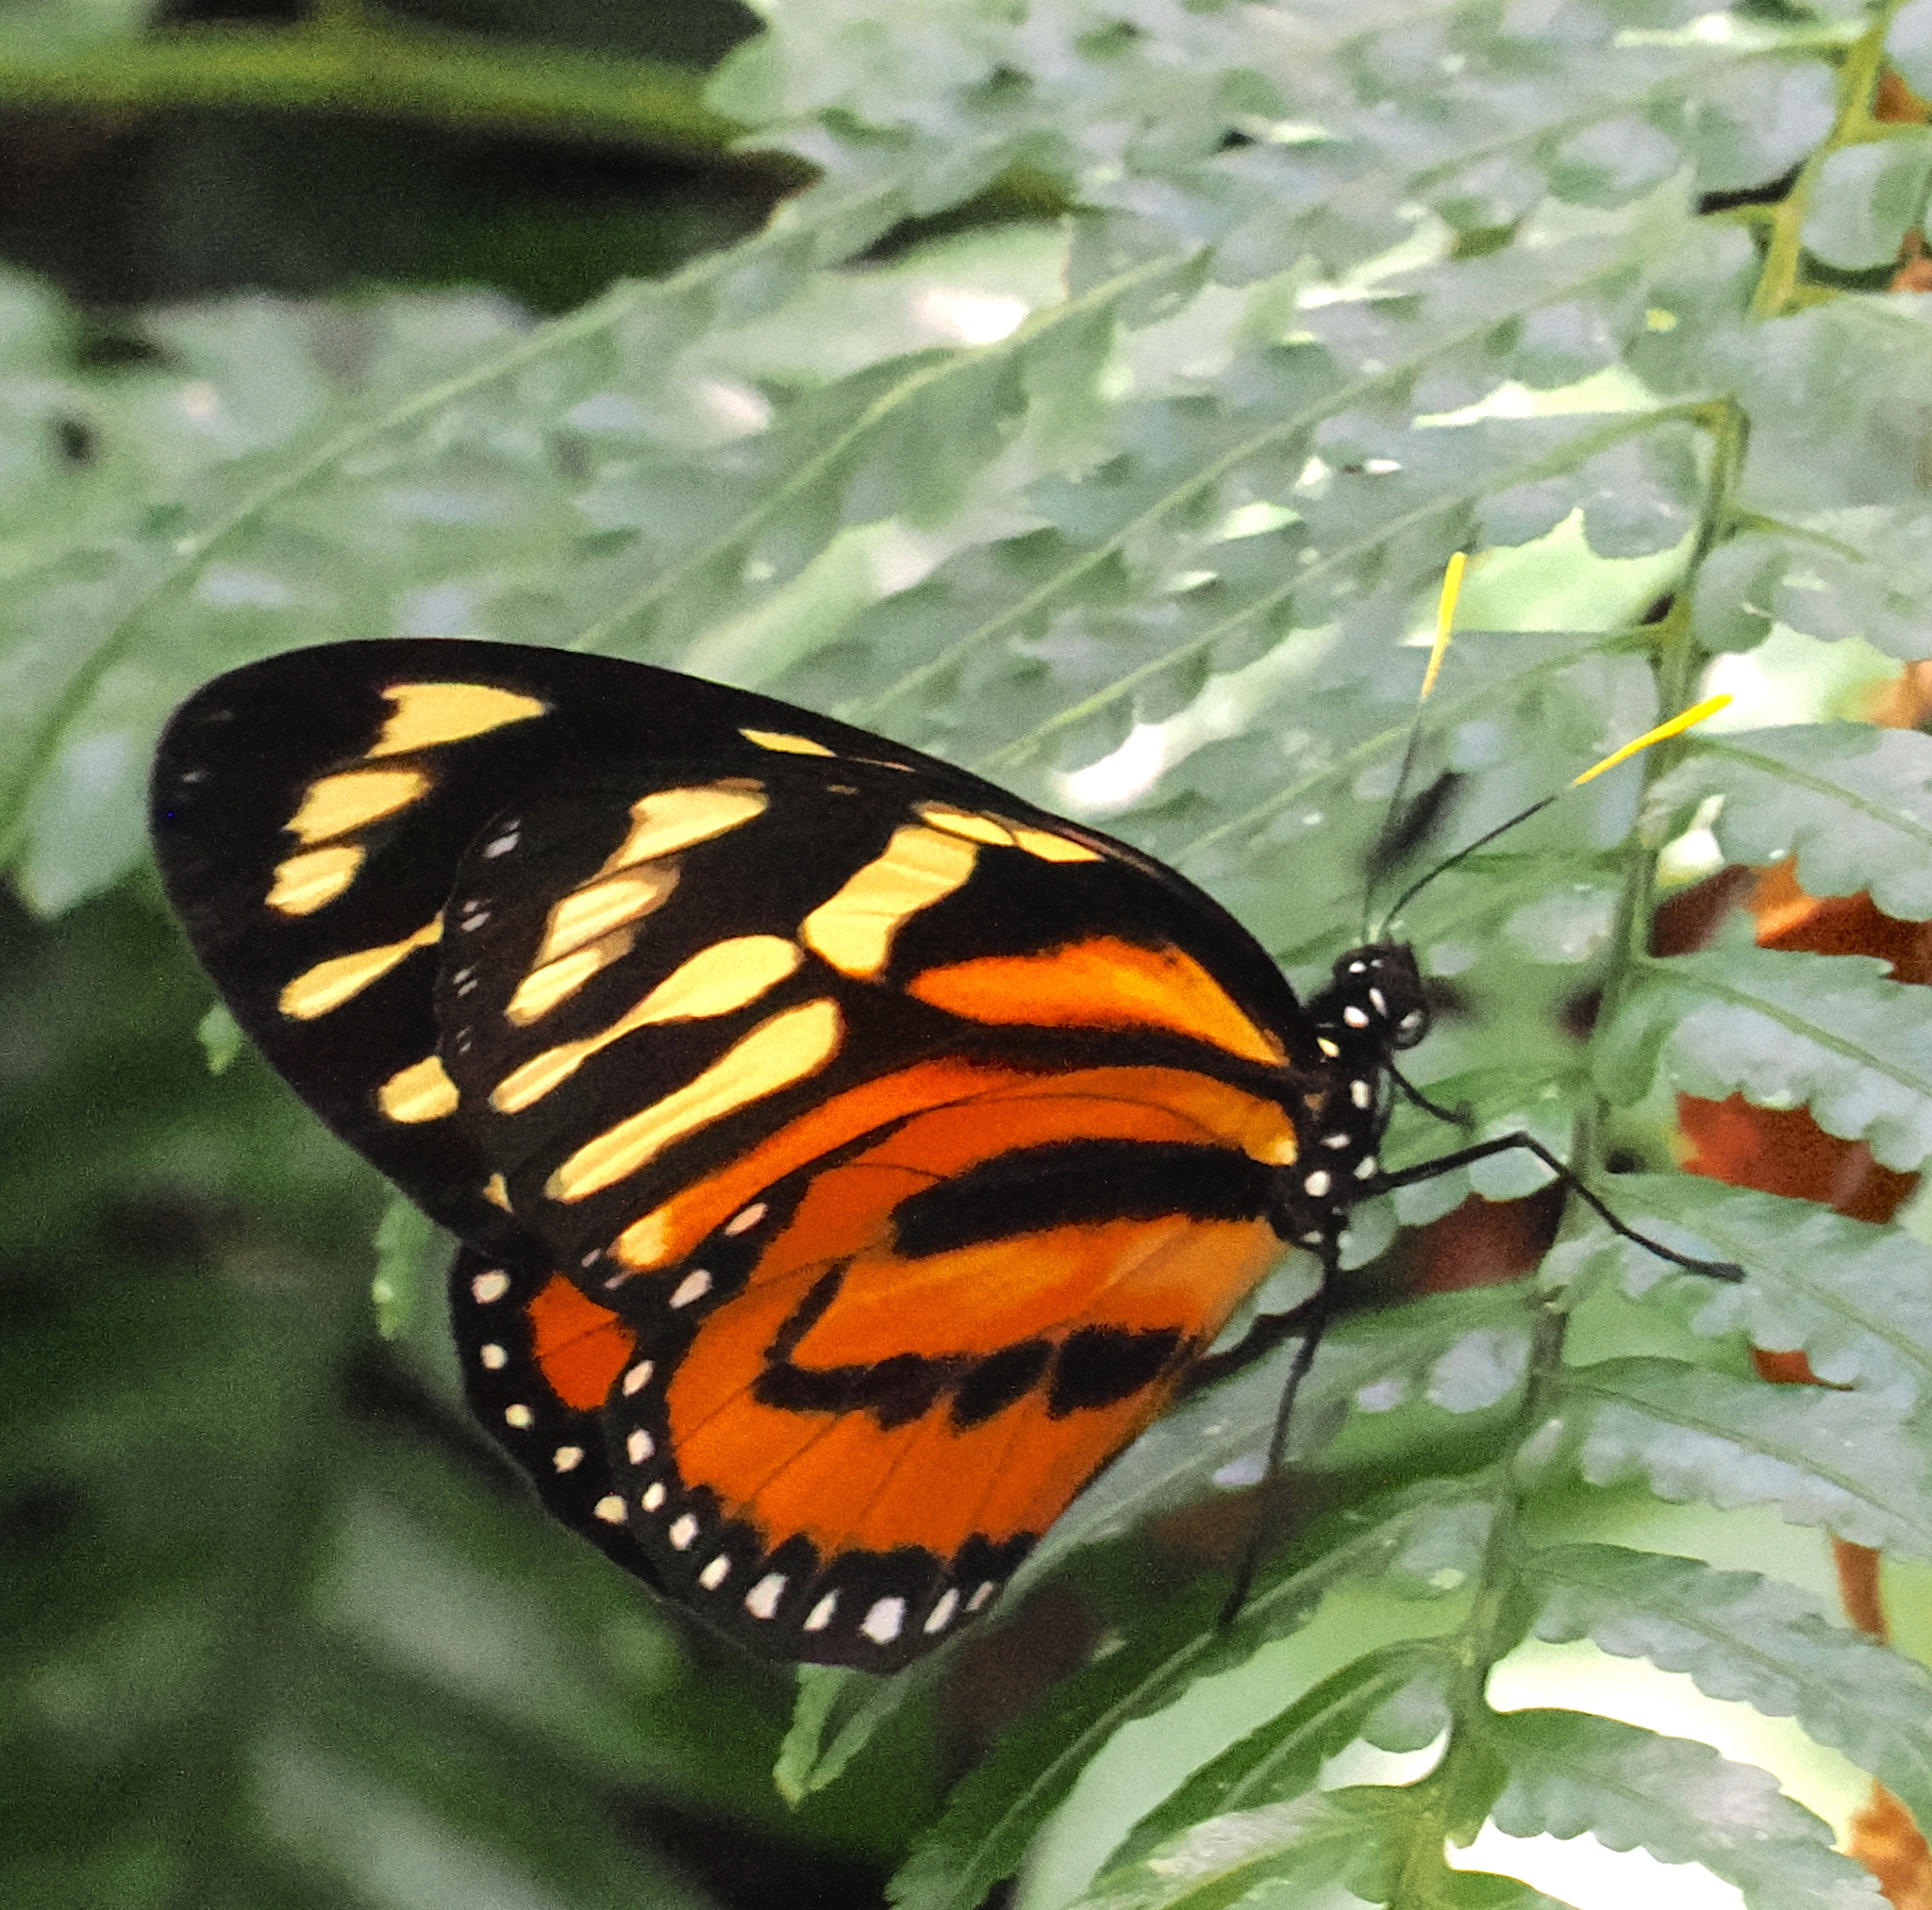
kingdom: Animalia
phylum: Arthropoda
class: Insecta
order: Lepidoptera
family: Nymphalidae
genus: Lycorea
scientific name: Lycorea cleobaea
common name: Tiger mimic-queen
